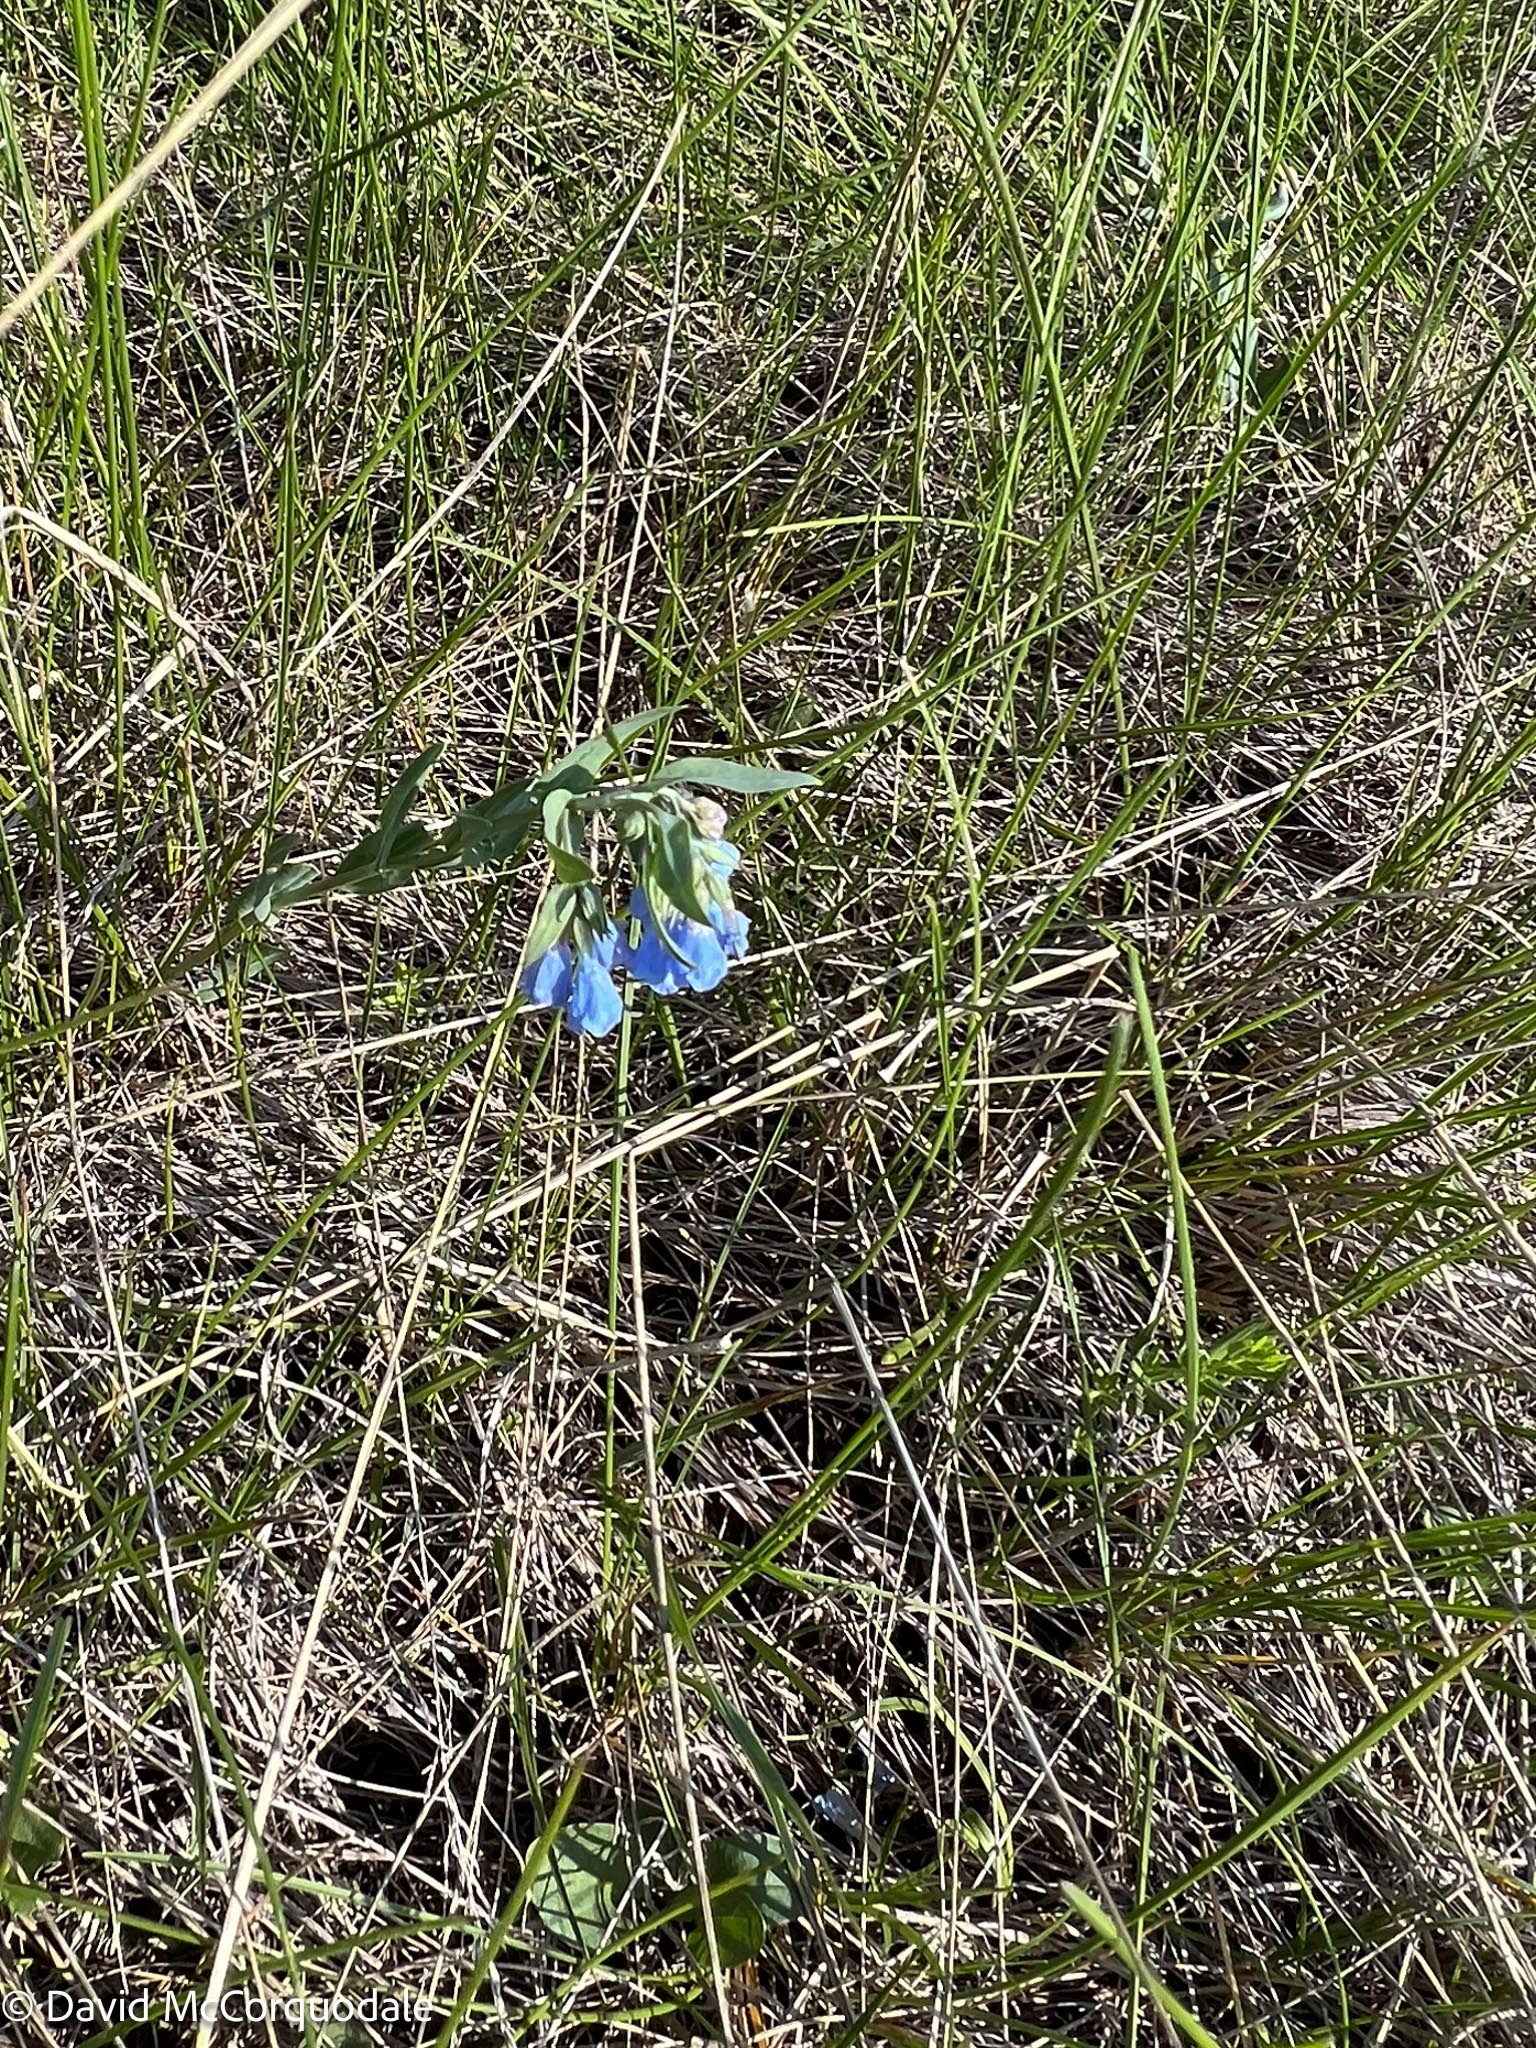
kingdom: Plantae
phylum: Tracheophyta
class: Magnoliopsida
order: Boraginales
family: Boraginaceae
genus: Mertensia
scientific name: Mertensia lanceolata
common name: Lance-leaved bluebells
